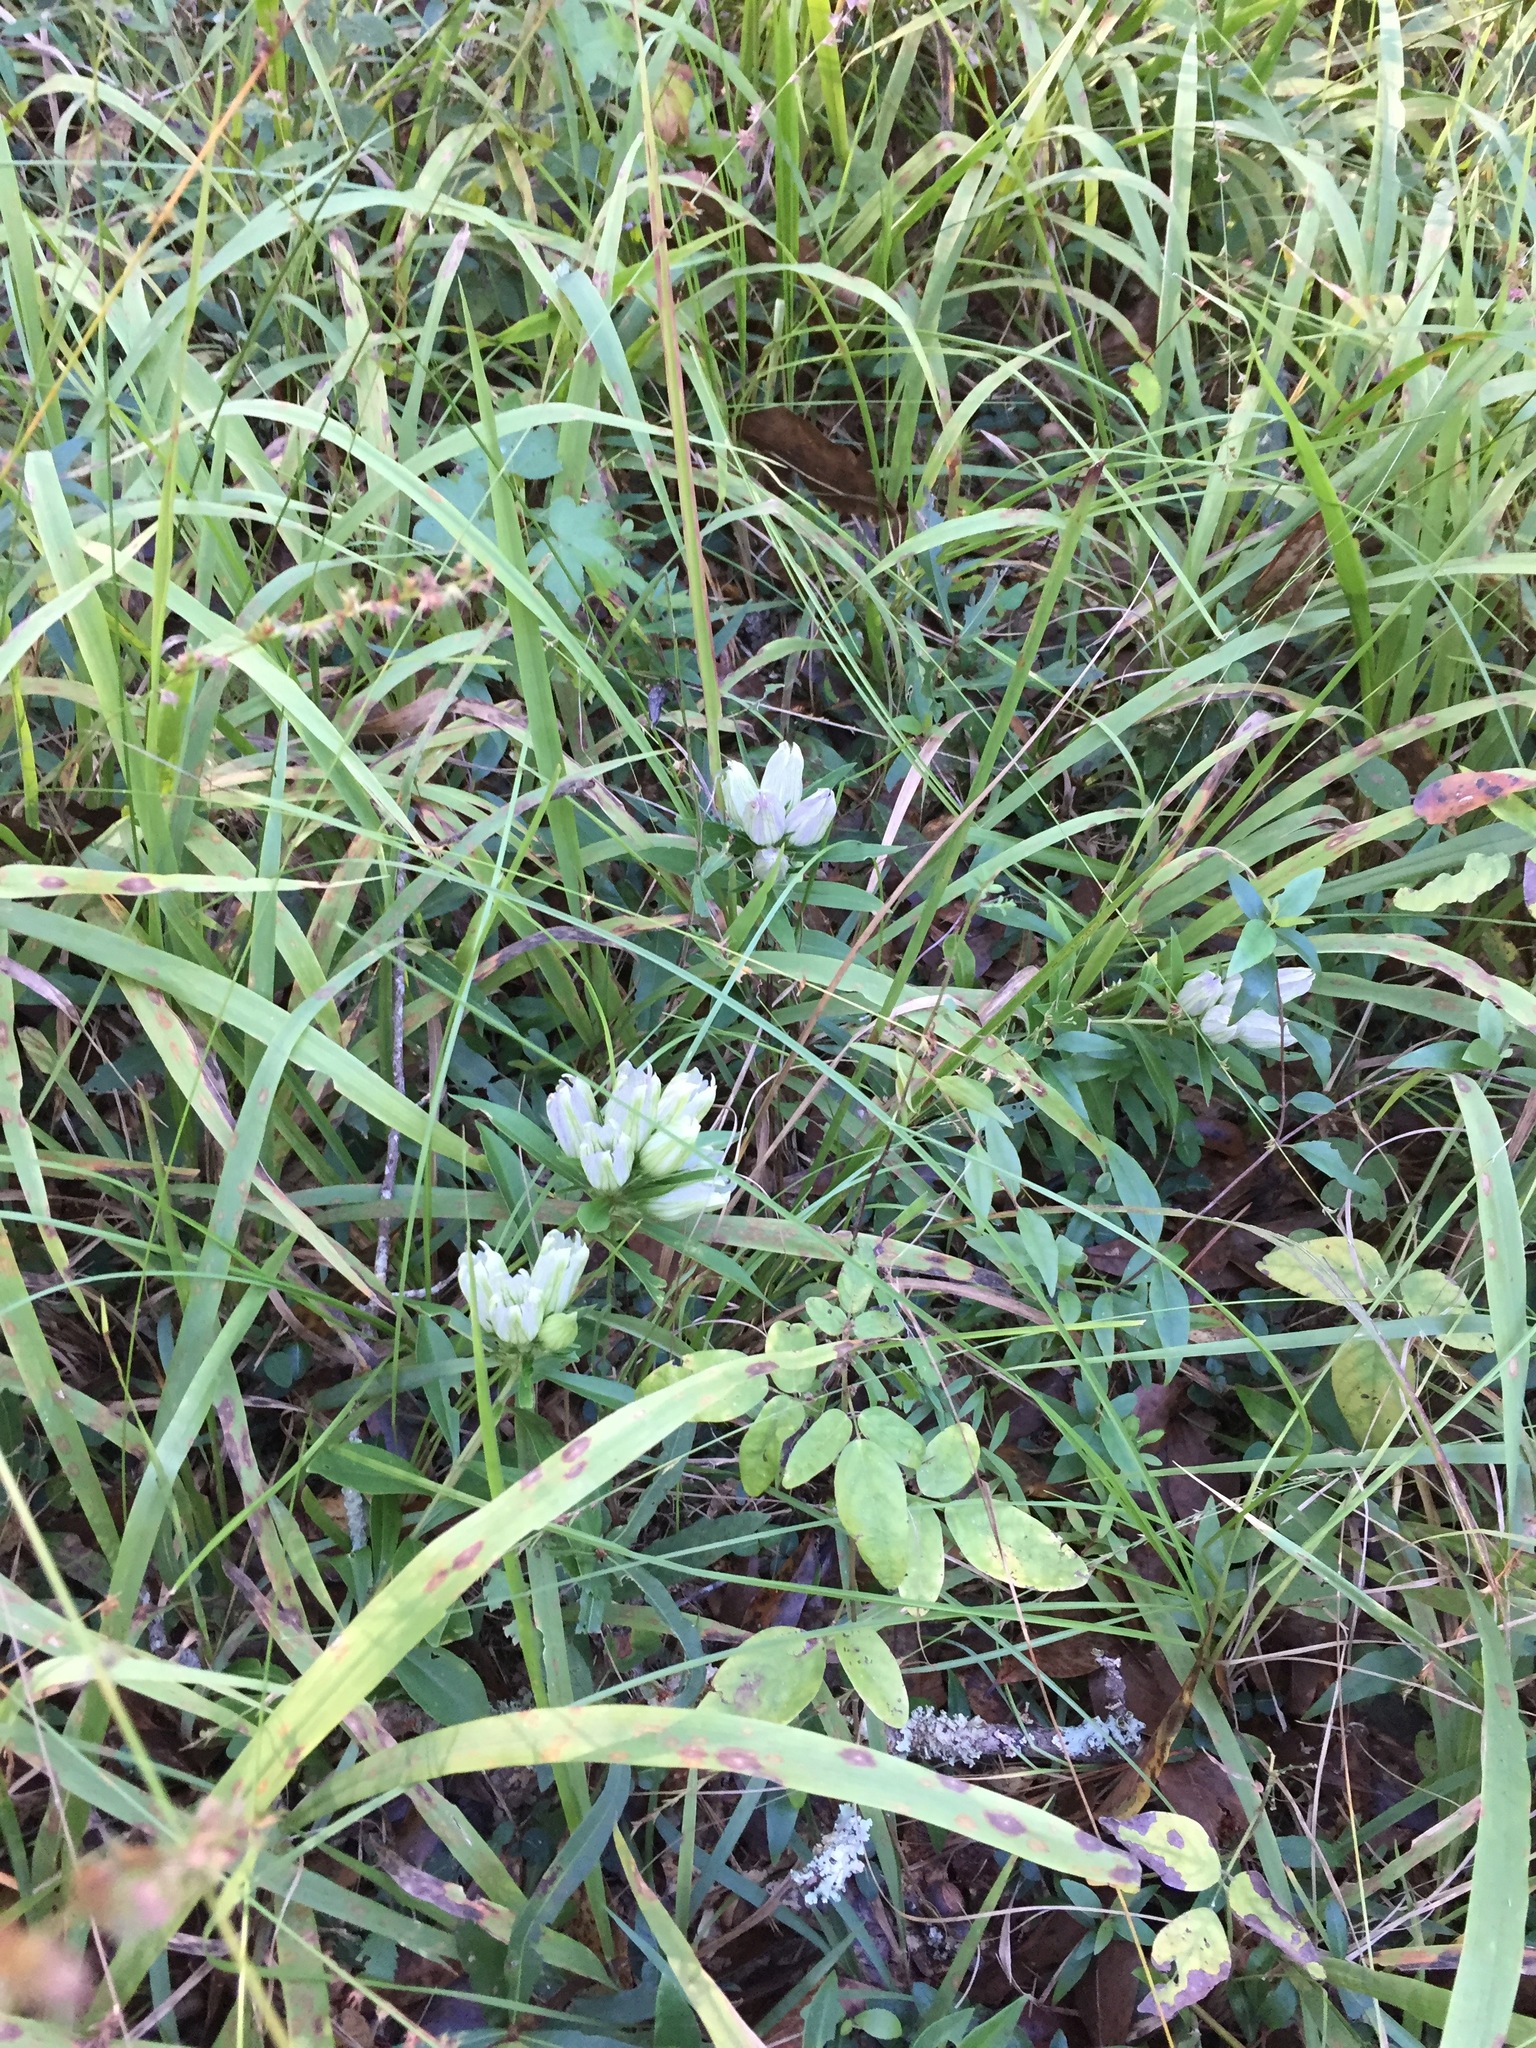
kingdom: Plantae
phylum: Tracheophyta
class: Magnoliopsida
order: Gentianales
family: Gentianaceae
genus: Gentiana
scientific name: Gentiana villosa
